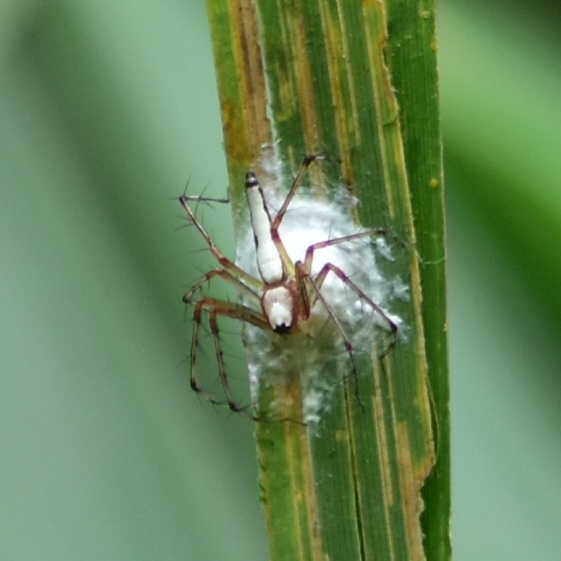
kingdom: Animalia
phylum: Arthropoda
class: Arachnida
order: Araneae
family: Oxyopidae
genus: Oxyopes
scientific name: Oxyopes shweta
